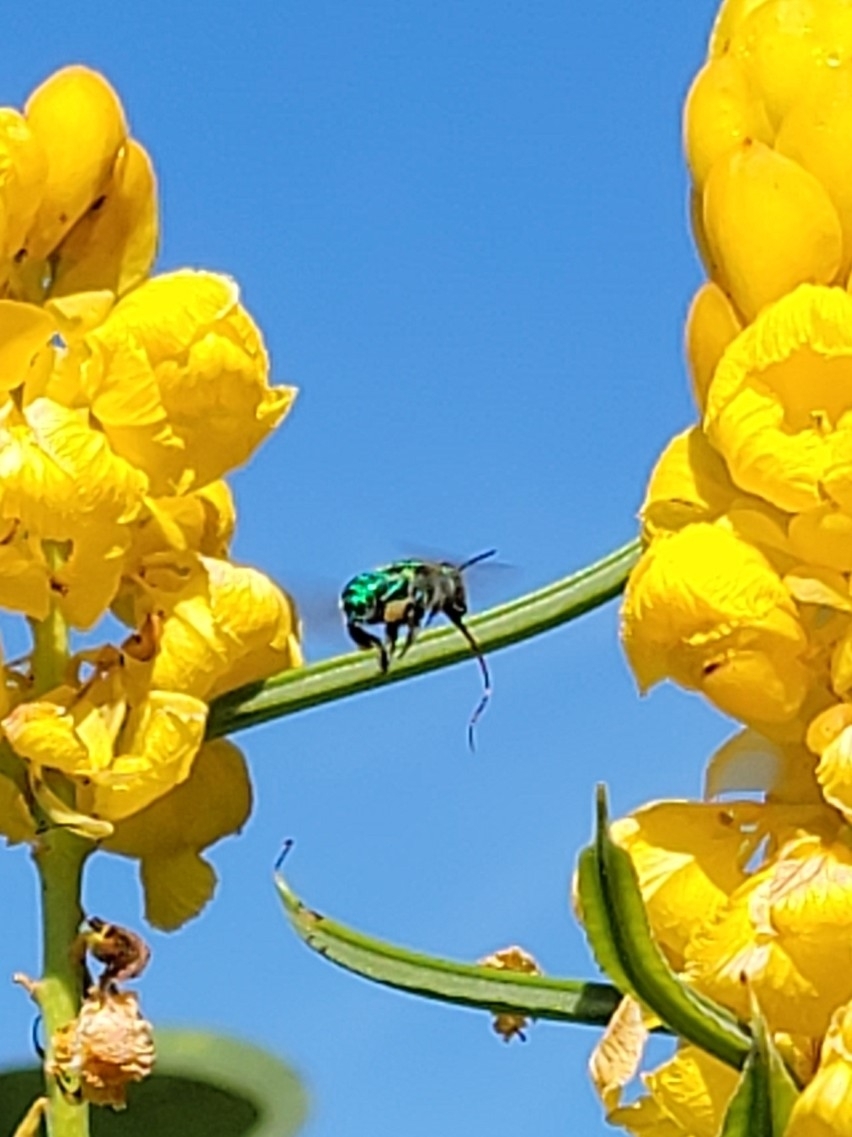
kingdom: Animalia
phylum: Arthropoda
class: Insecta
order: Hymenoptera
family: Apidae
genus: Euglossa
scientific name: Euglossa dilemma
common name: Green orchid bee
